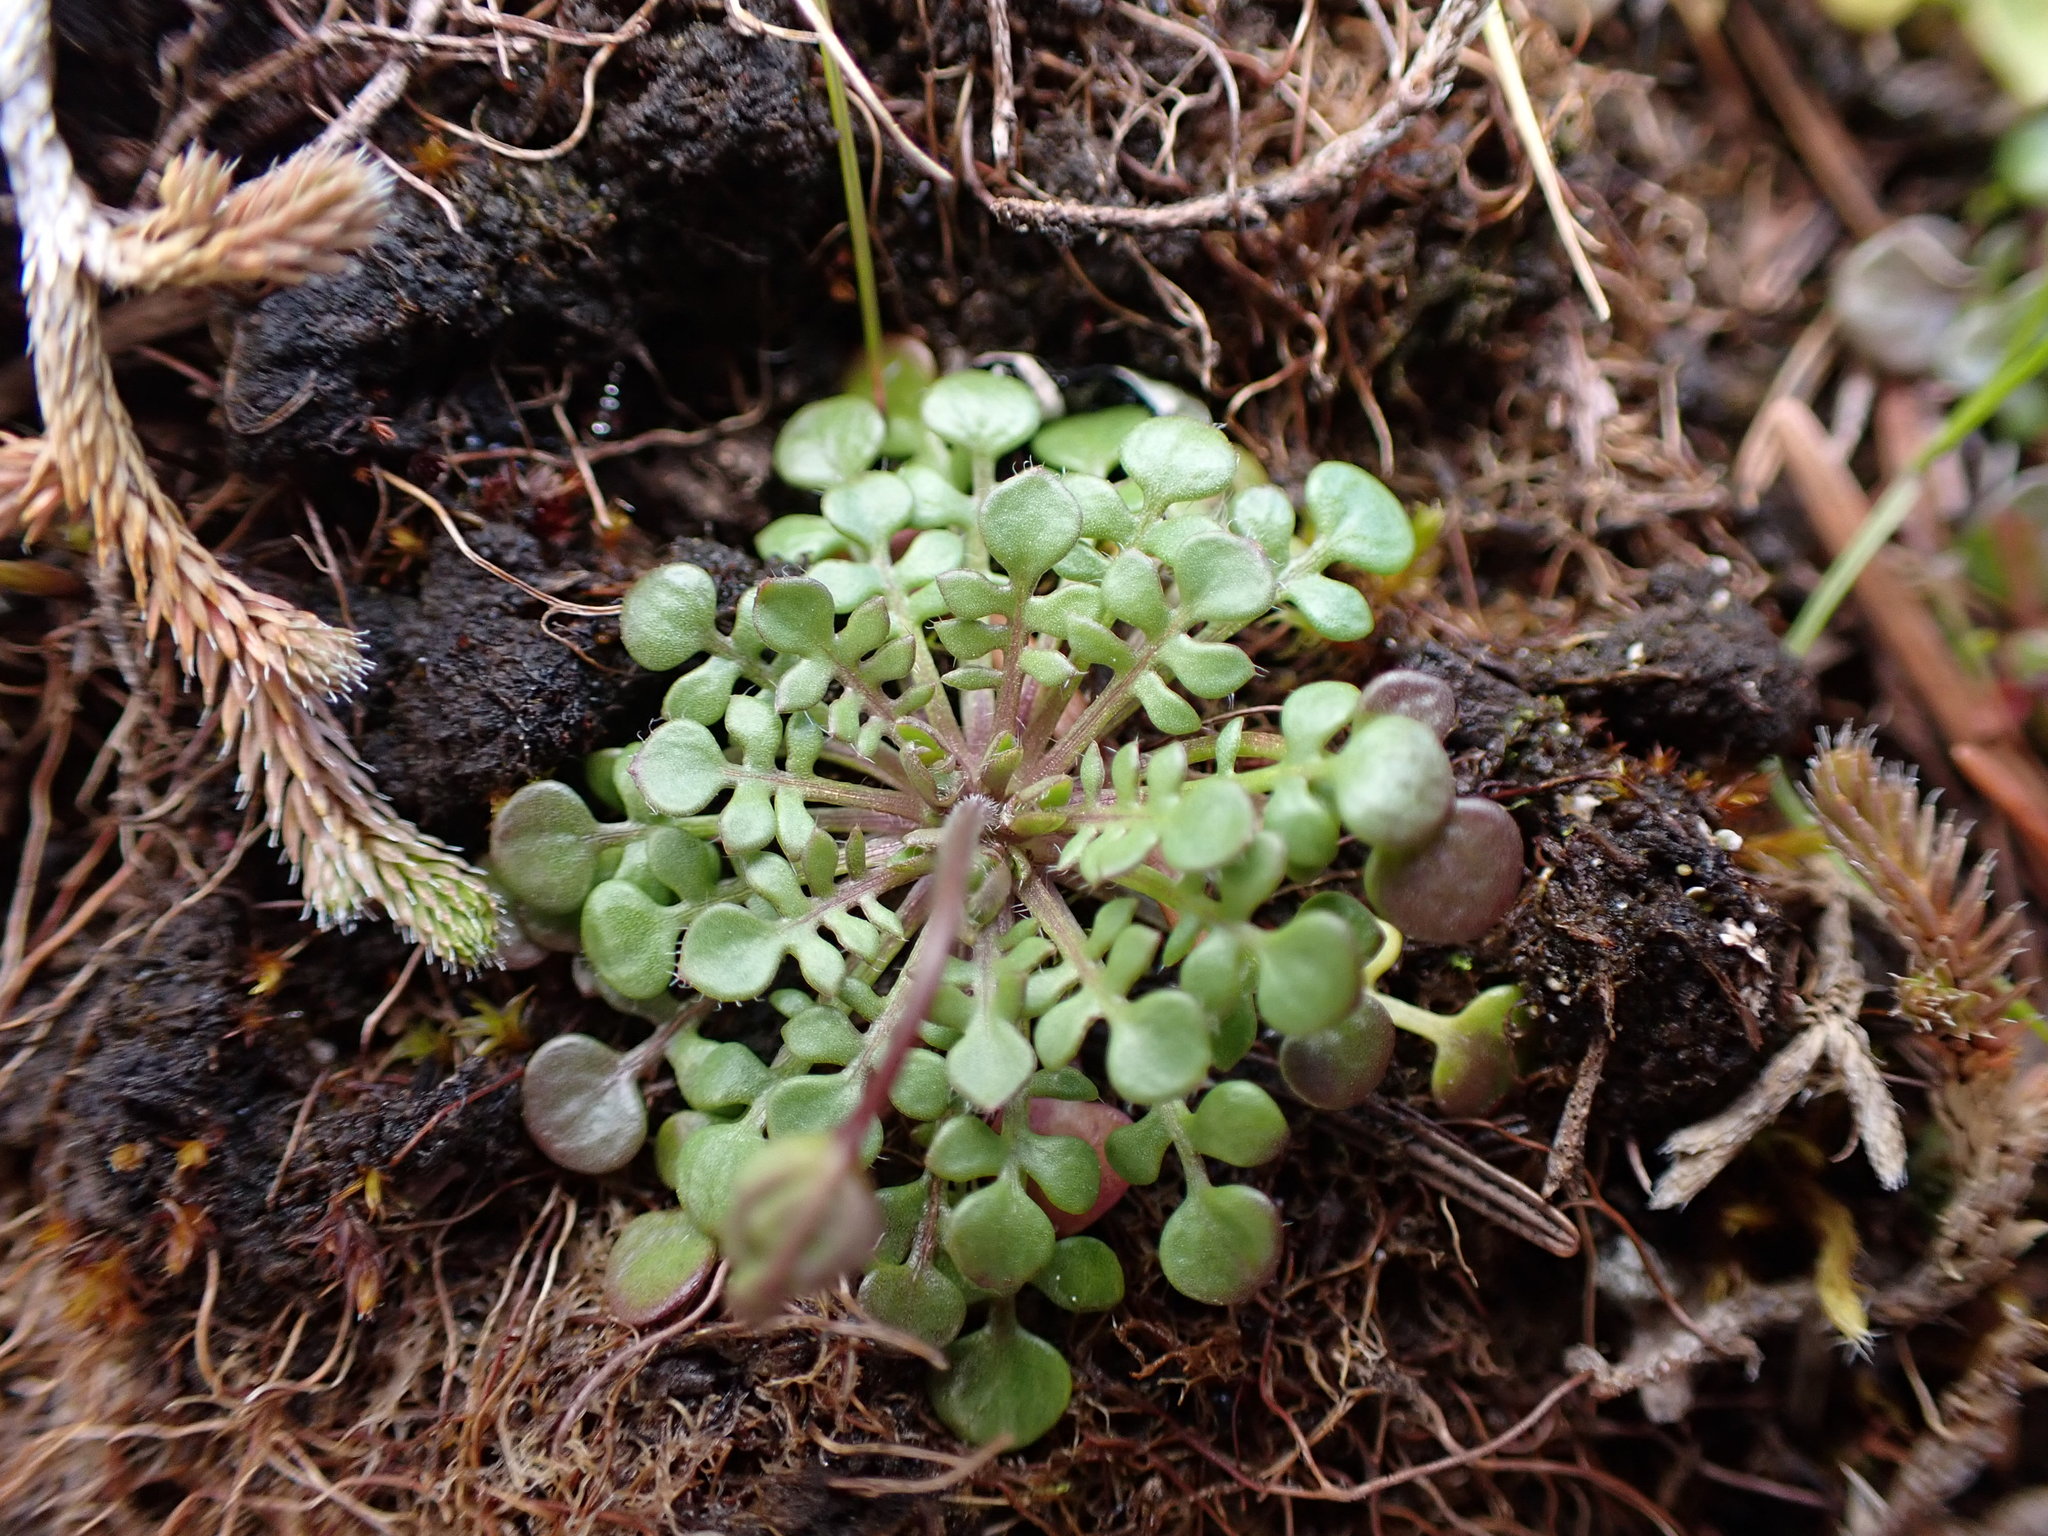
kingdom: Plantae
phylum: Tracheophyta
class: Magnoliopsida
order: Brassicales
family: Brassicaceae
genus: Teesdalia
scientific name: Teesdalia nudicaulis
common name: Shepherd's cress
